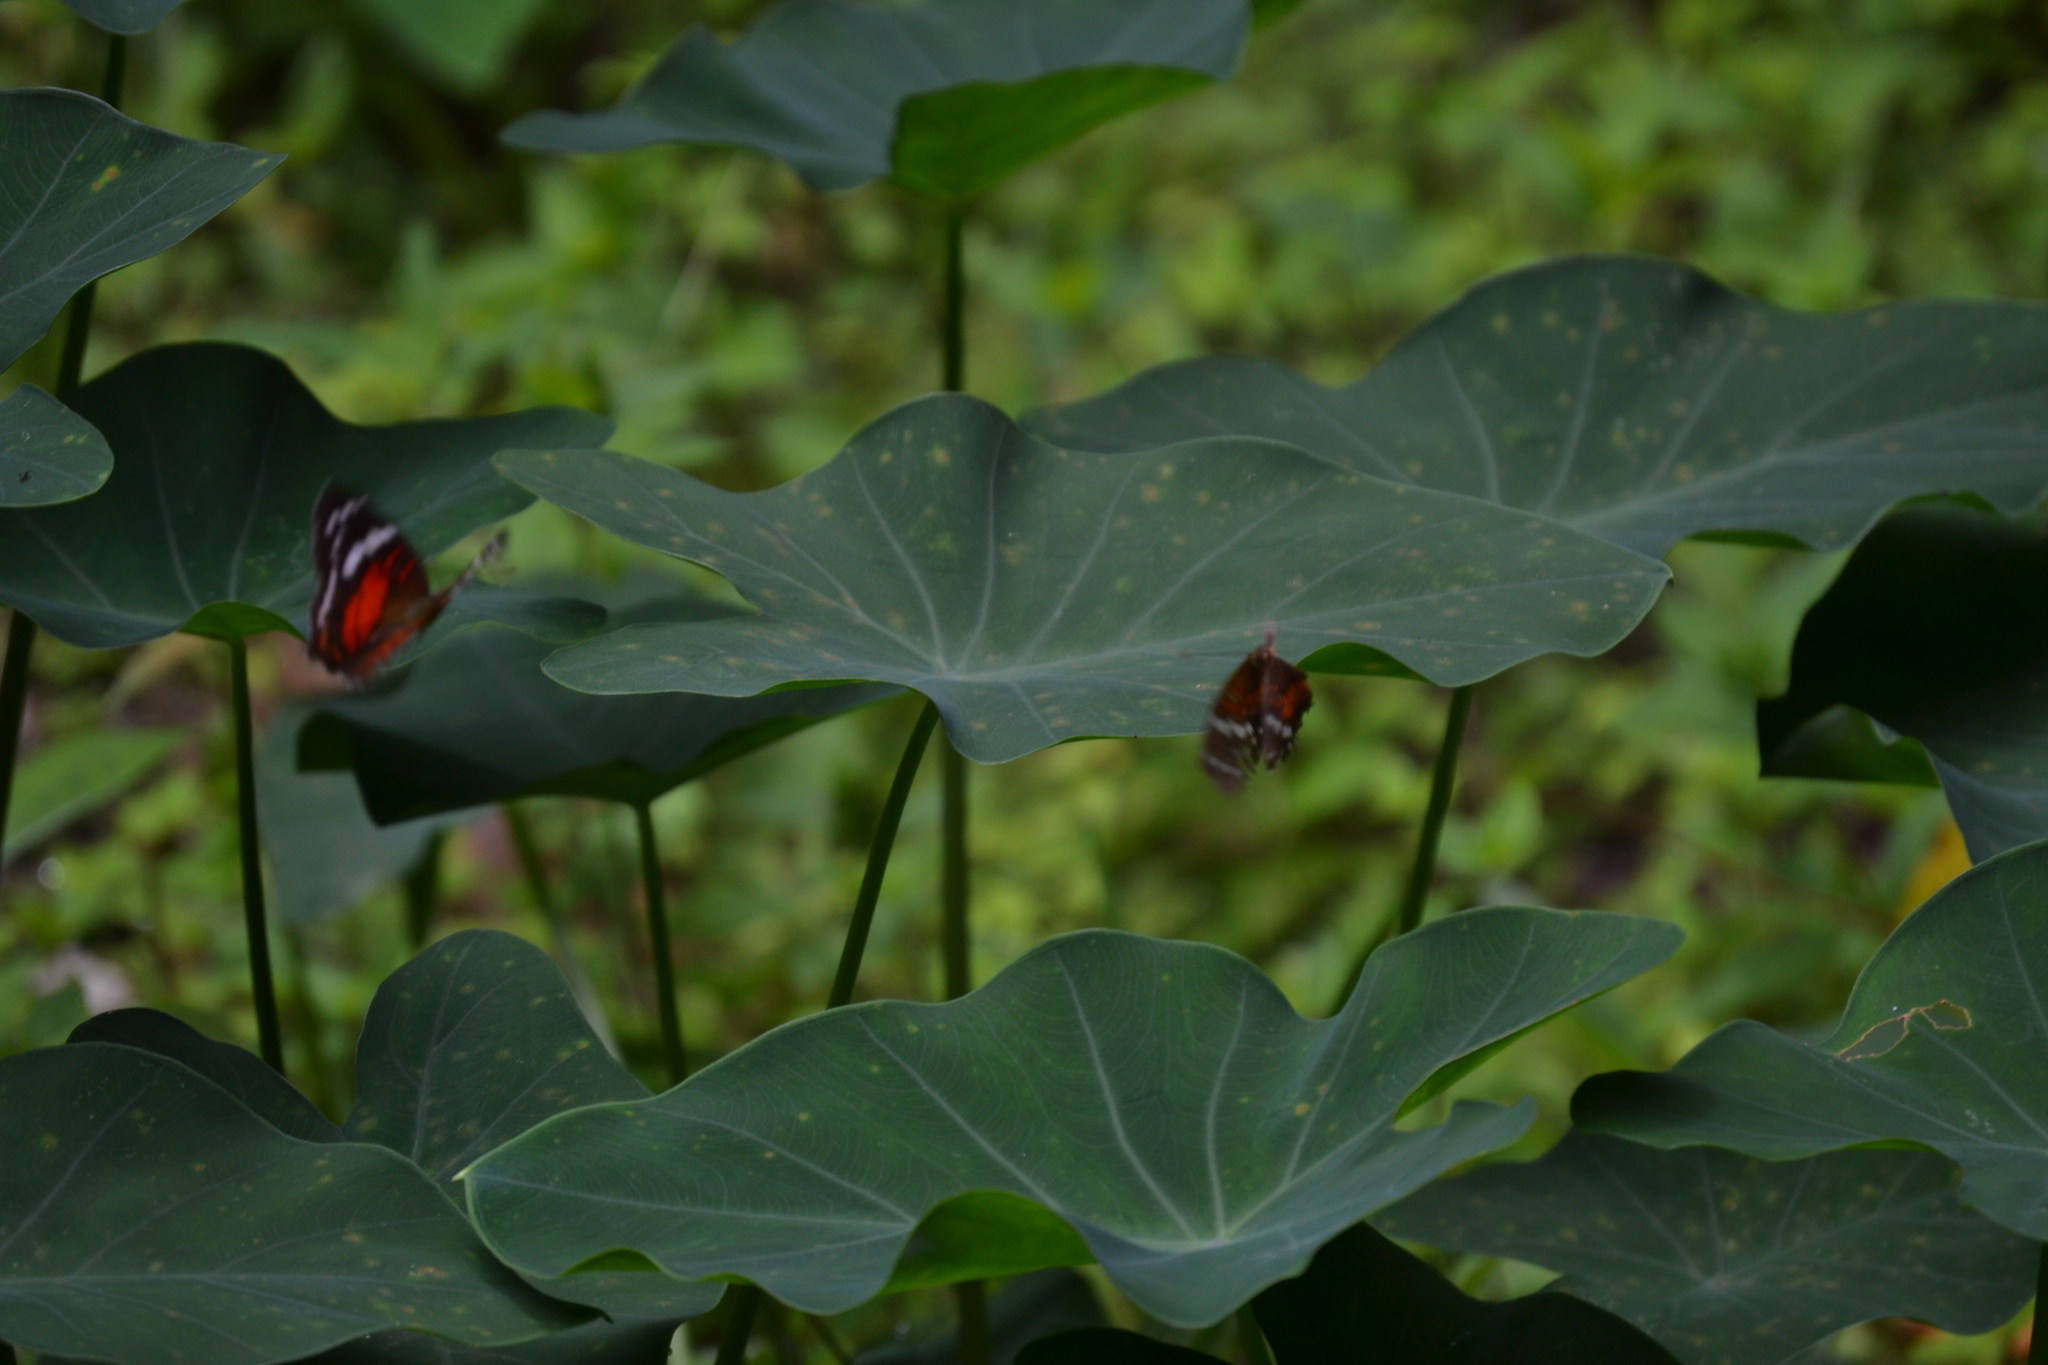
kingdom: Animalia
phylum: Arthropoda
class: Insecta
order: Lepidoptera
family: Nymphalidae
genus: Anartia
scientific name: Anartia amathea
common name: Red peacock
